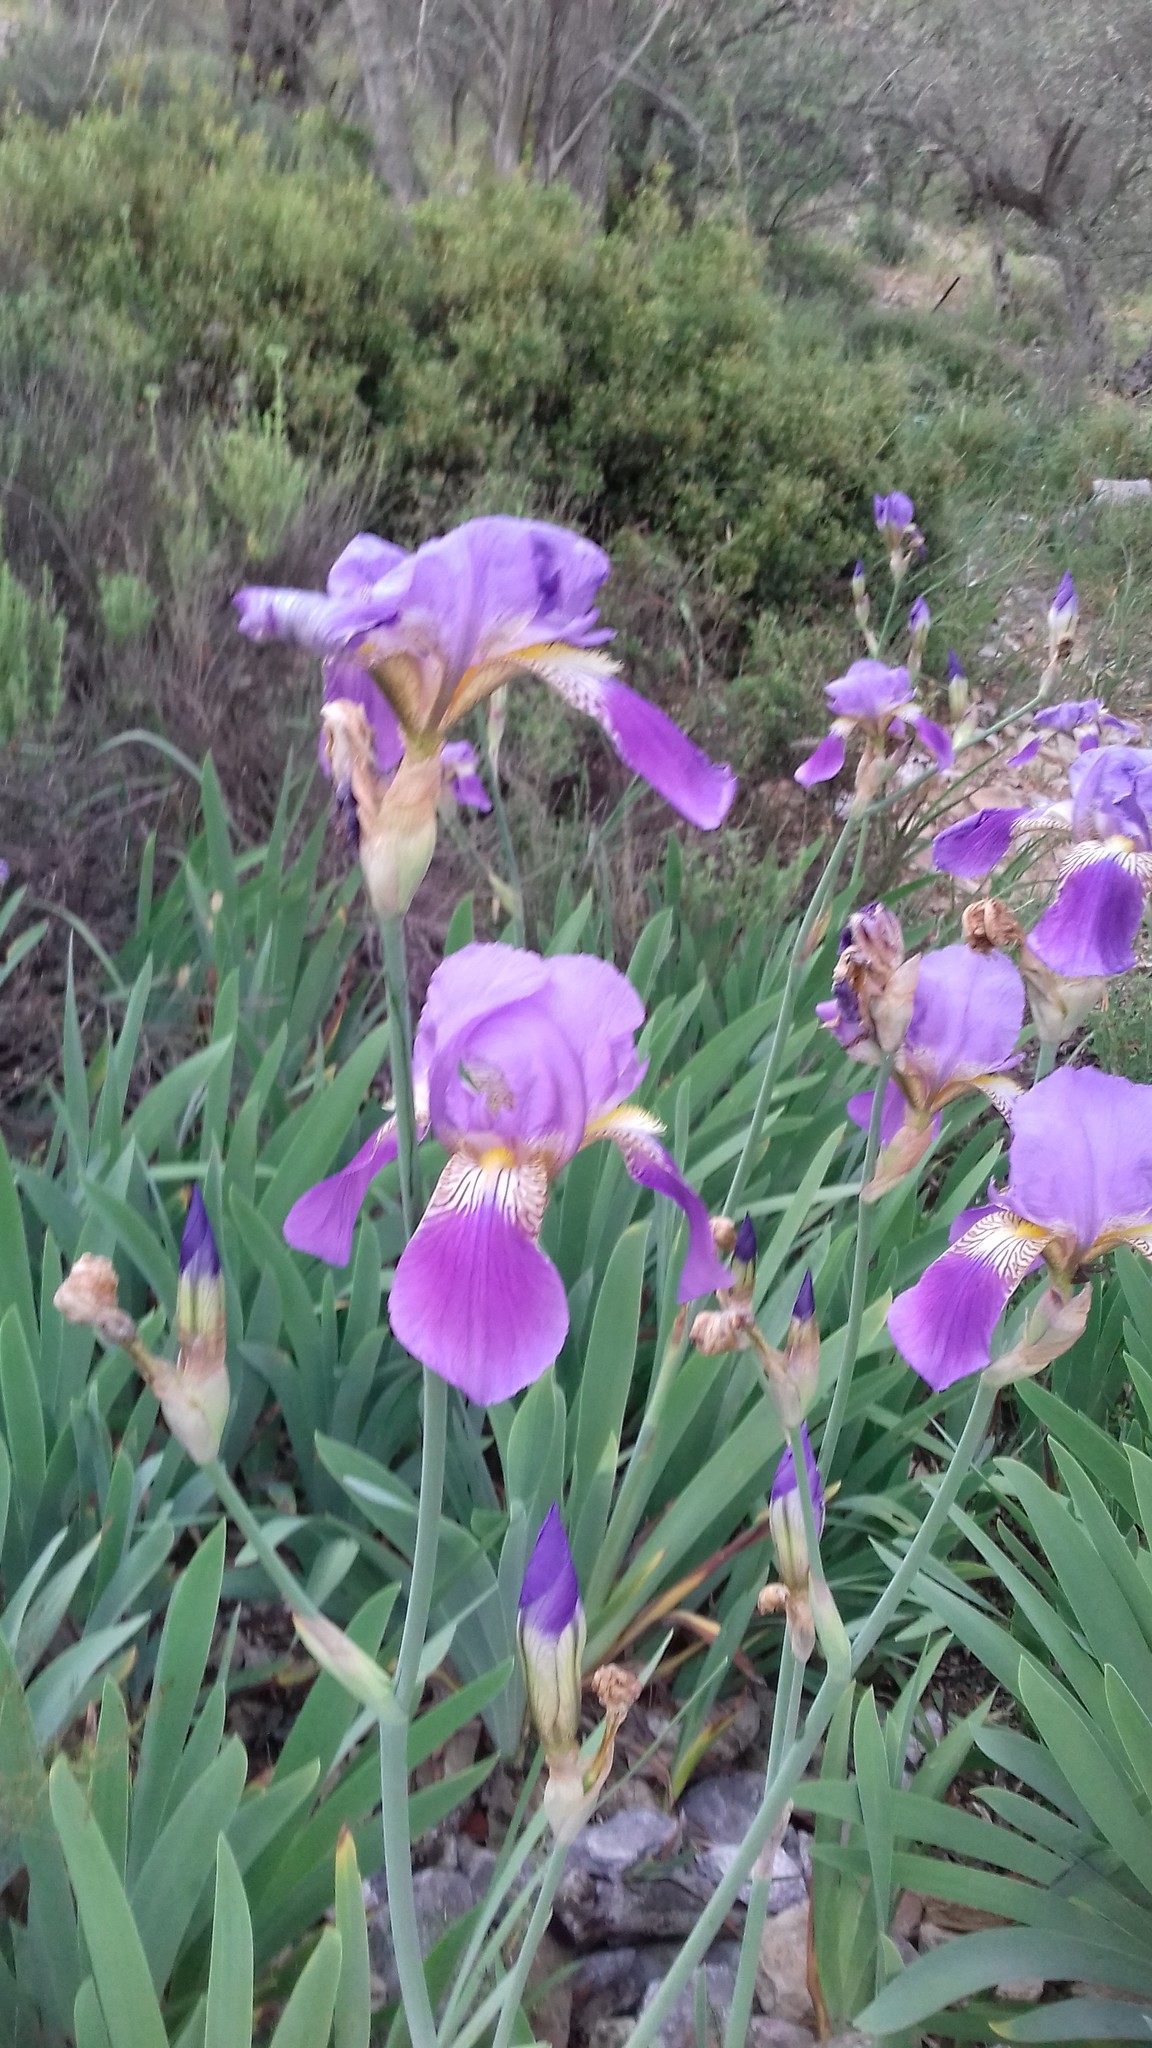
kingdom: Plantae
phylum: Tracheophyta
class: Liliopsida
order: Asparagales
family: Iridaceae
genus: Iris
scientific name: Iris germanica
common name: German iris
